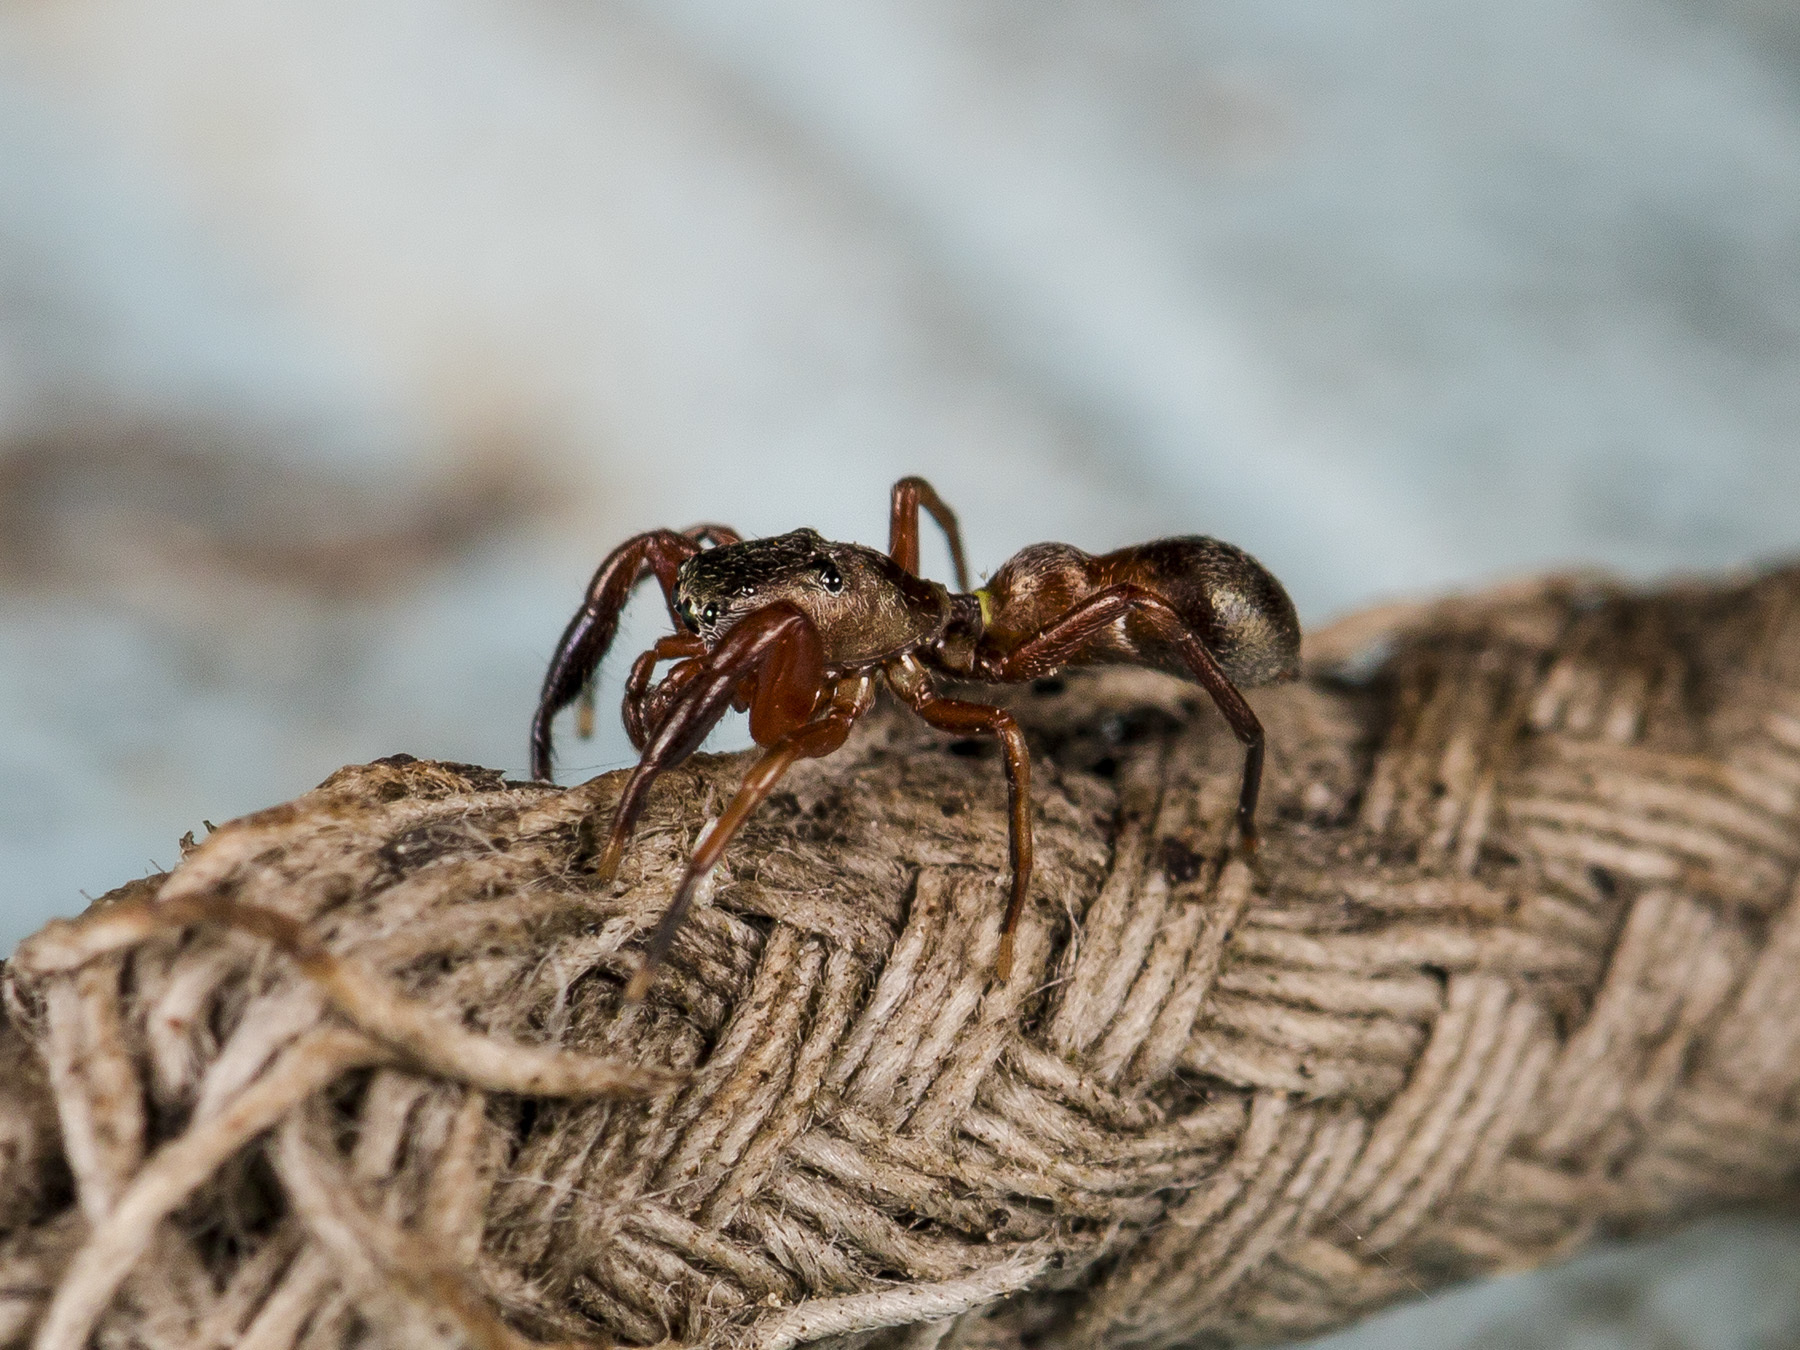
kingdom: Animalia
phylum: Arthropoda
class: Arachnida
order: Araneae
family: Salticidae
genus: Synageles
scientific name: Synageles subcingulatus
